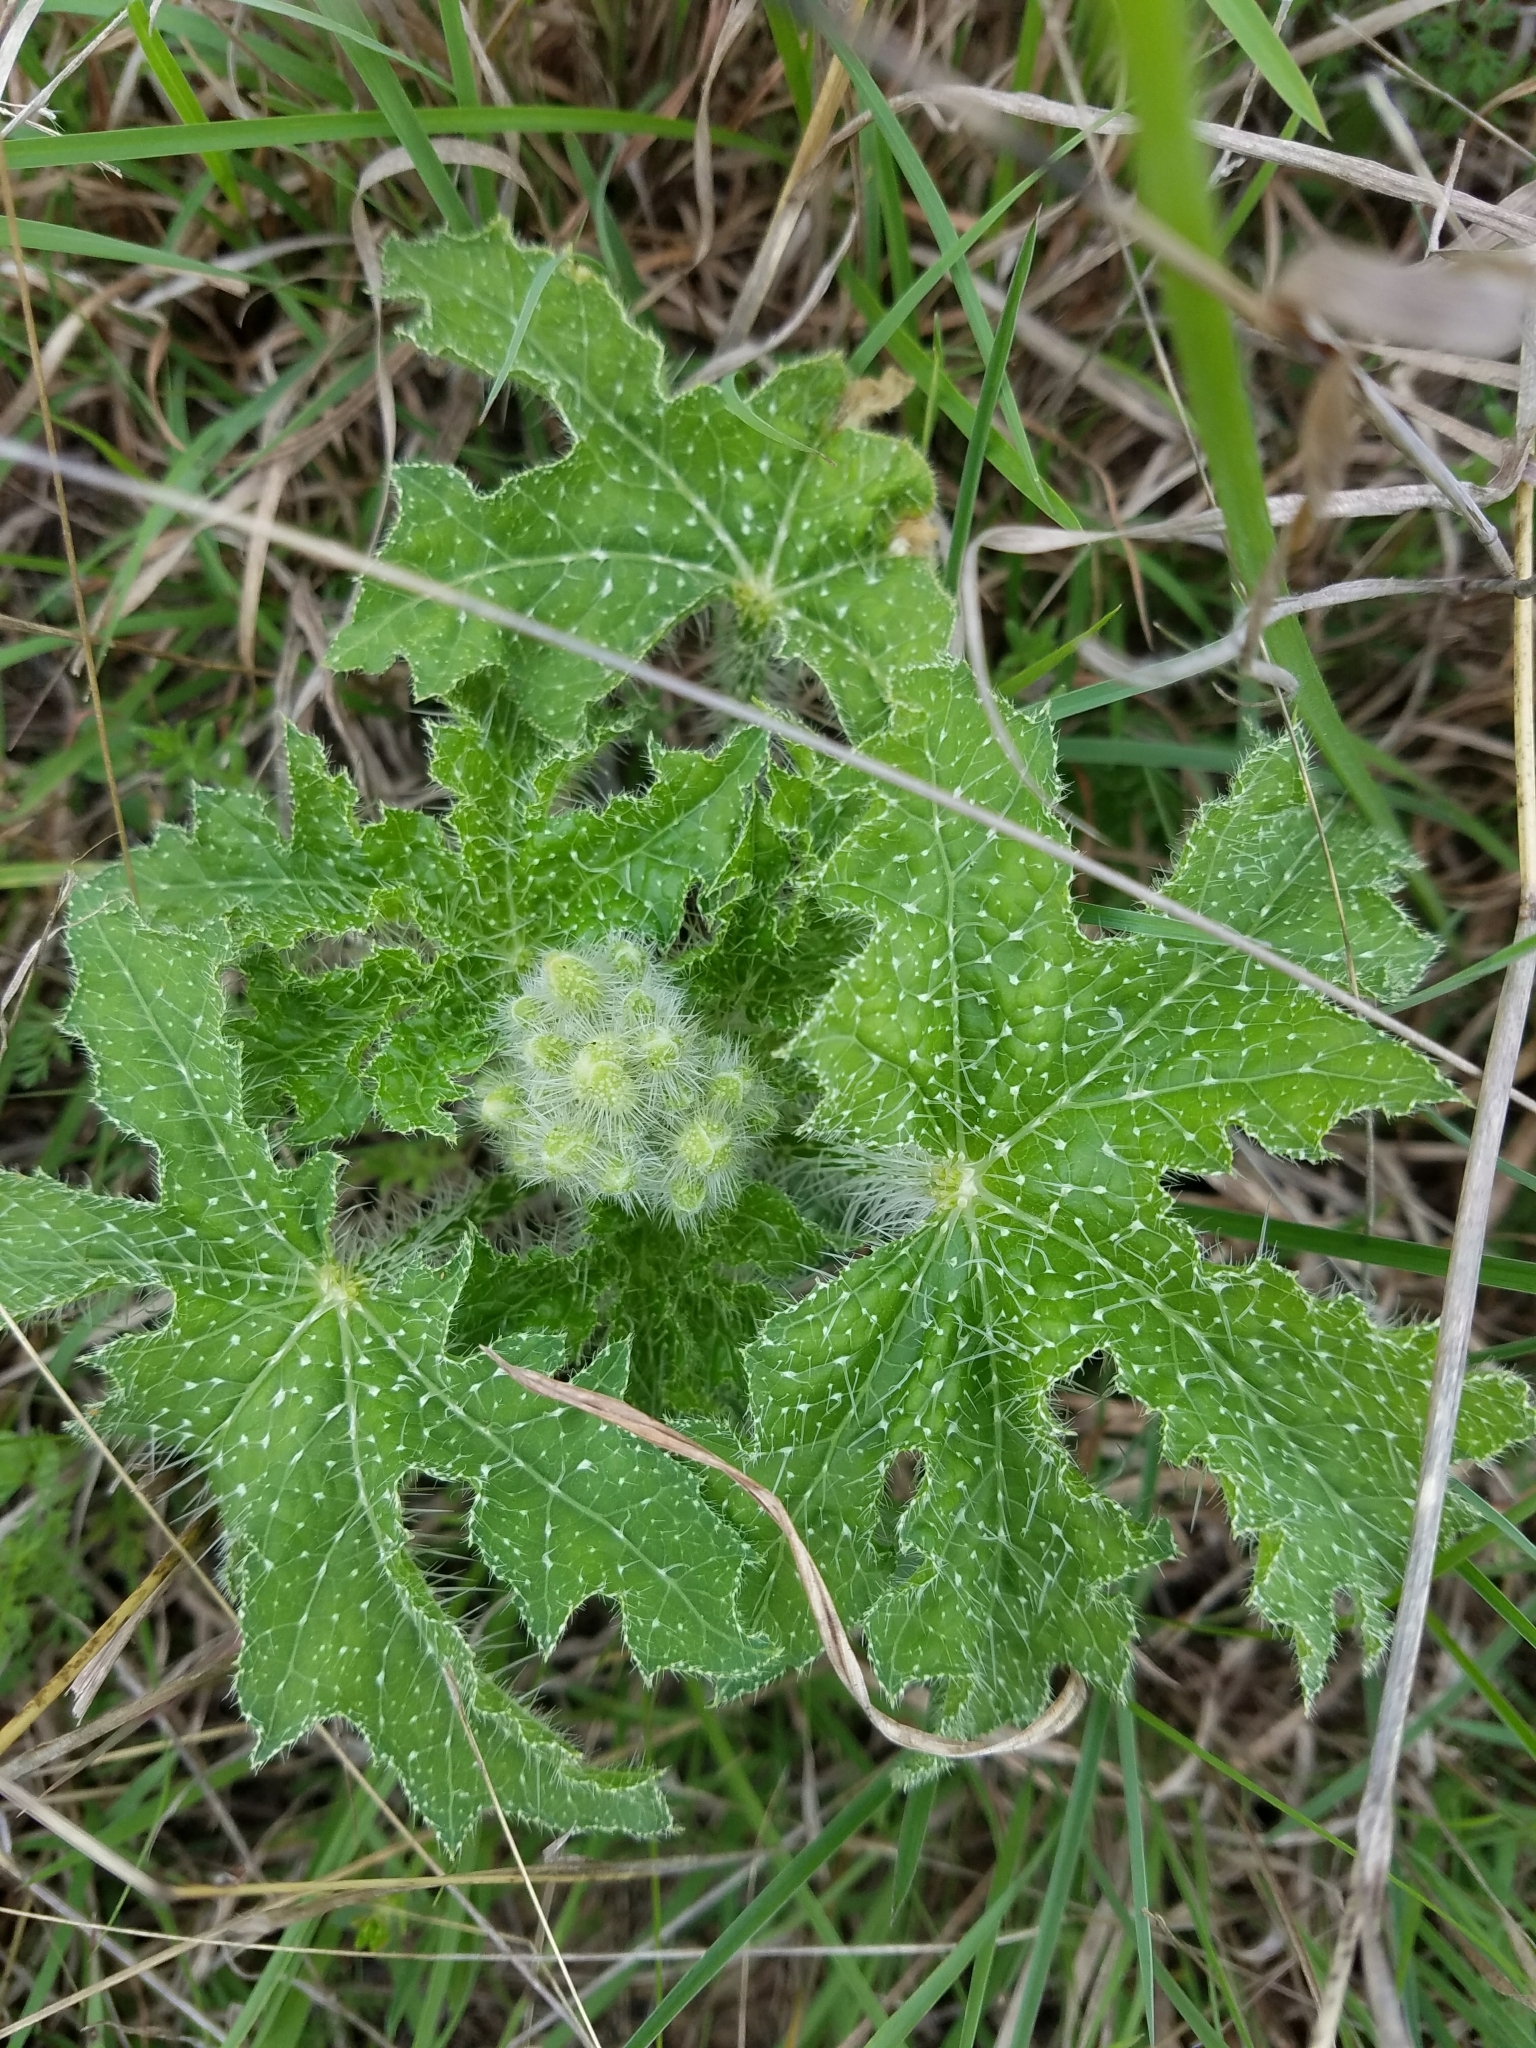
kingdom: Plantae
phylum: Tracheophyta
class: Magnoliopsida
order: Malpighiales
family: Euphorbiaceae
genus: Cnidoscolus
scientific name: Cnidoscolus texanus
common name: Texas bull-nettle
